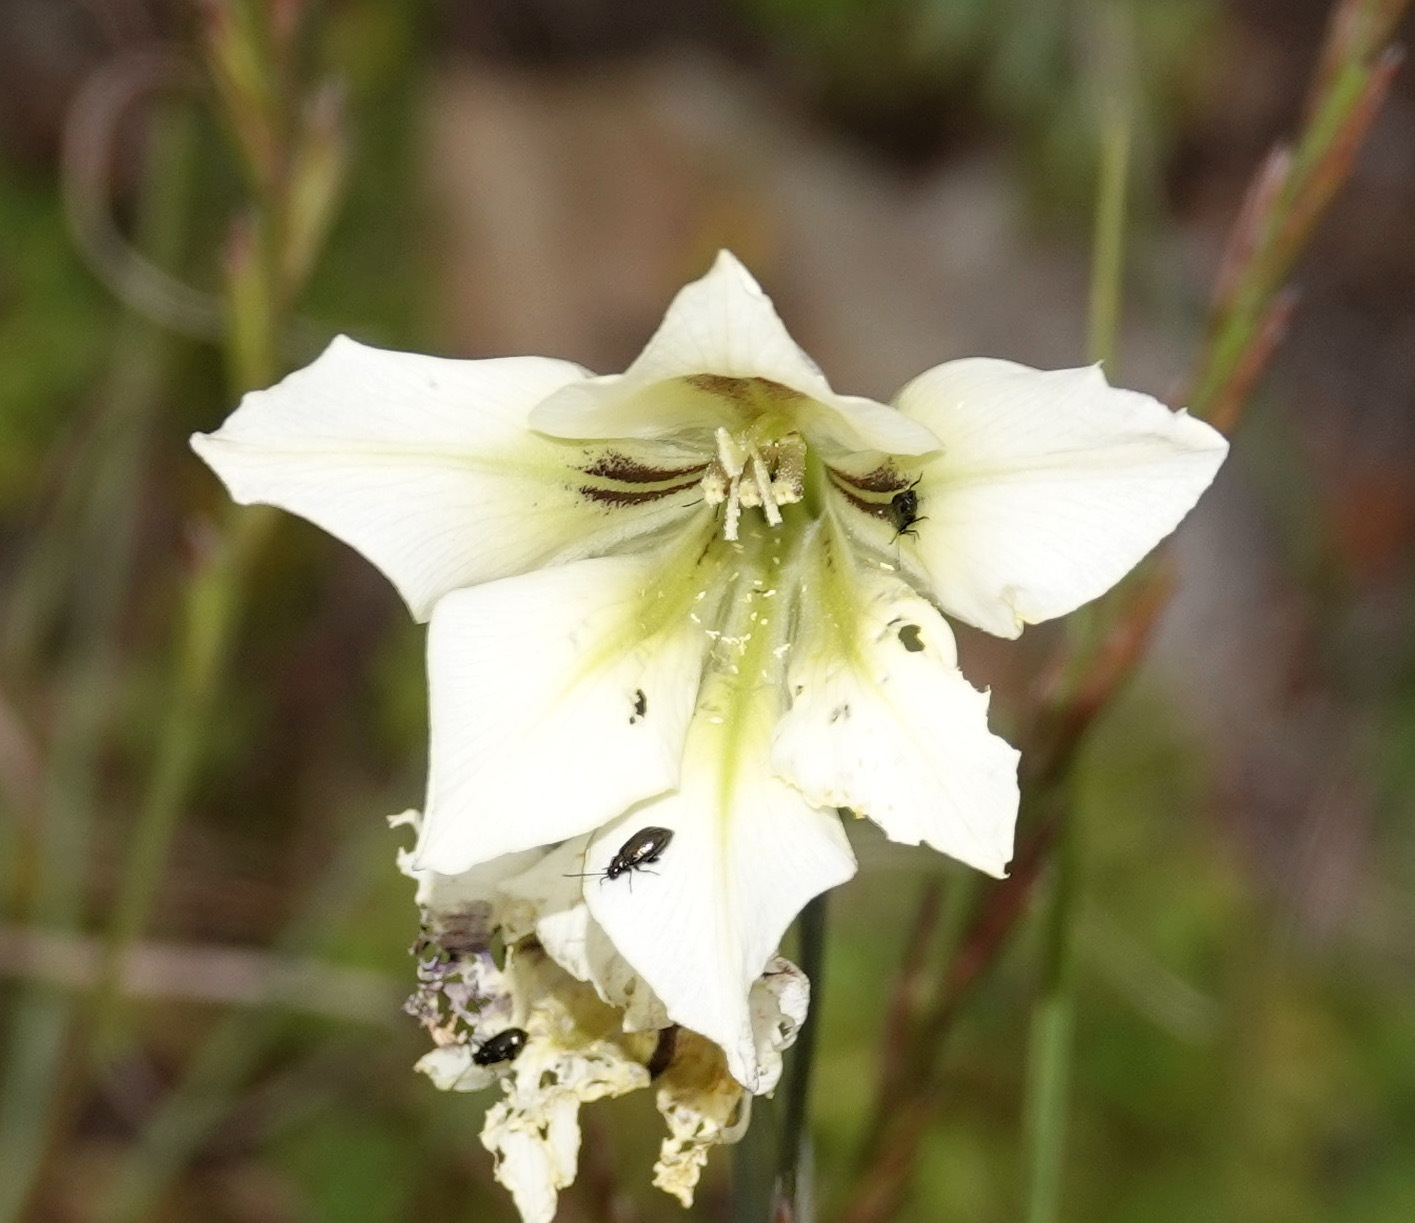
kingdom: Plantae
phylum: Tracheophyta
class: Liliopsida
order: Asparagales
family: Iridaceae
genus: Gladiolus
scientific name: Gladiolus tristis
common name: Ever-flowering gladiolus
